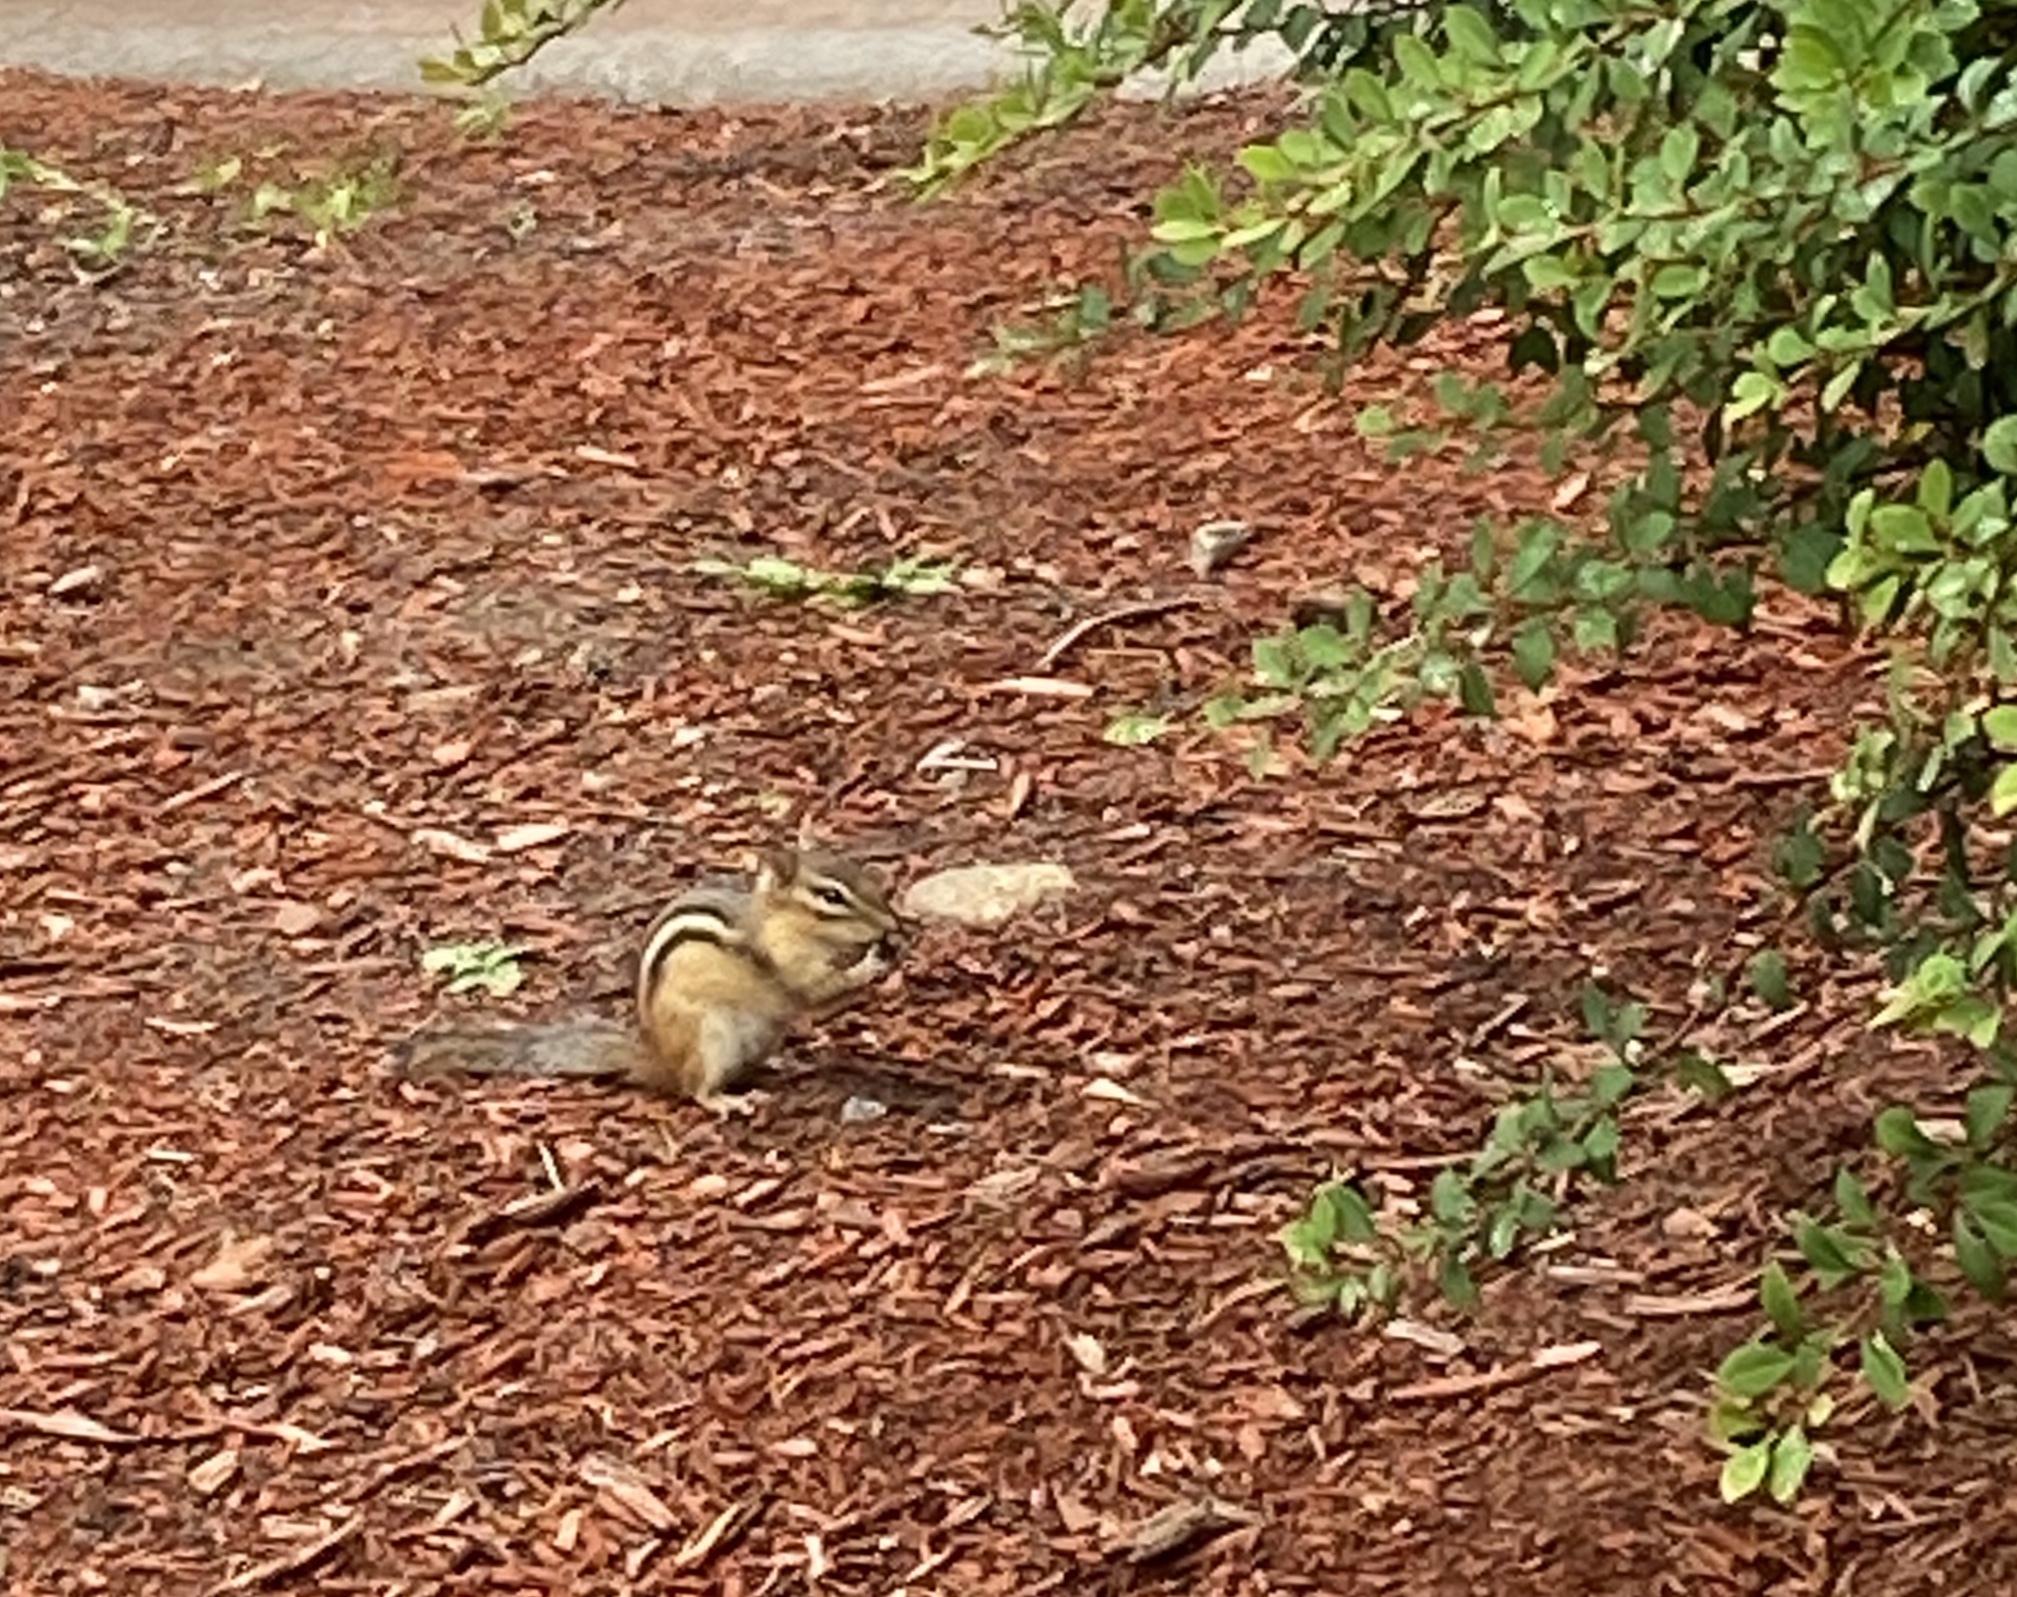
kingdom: Animalia
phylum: Chordata
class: Mammalia
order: Rodentia
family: Sciuridae
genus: Tamias
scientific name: Tamias striatus
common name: Eastern chipmunk
